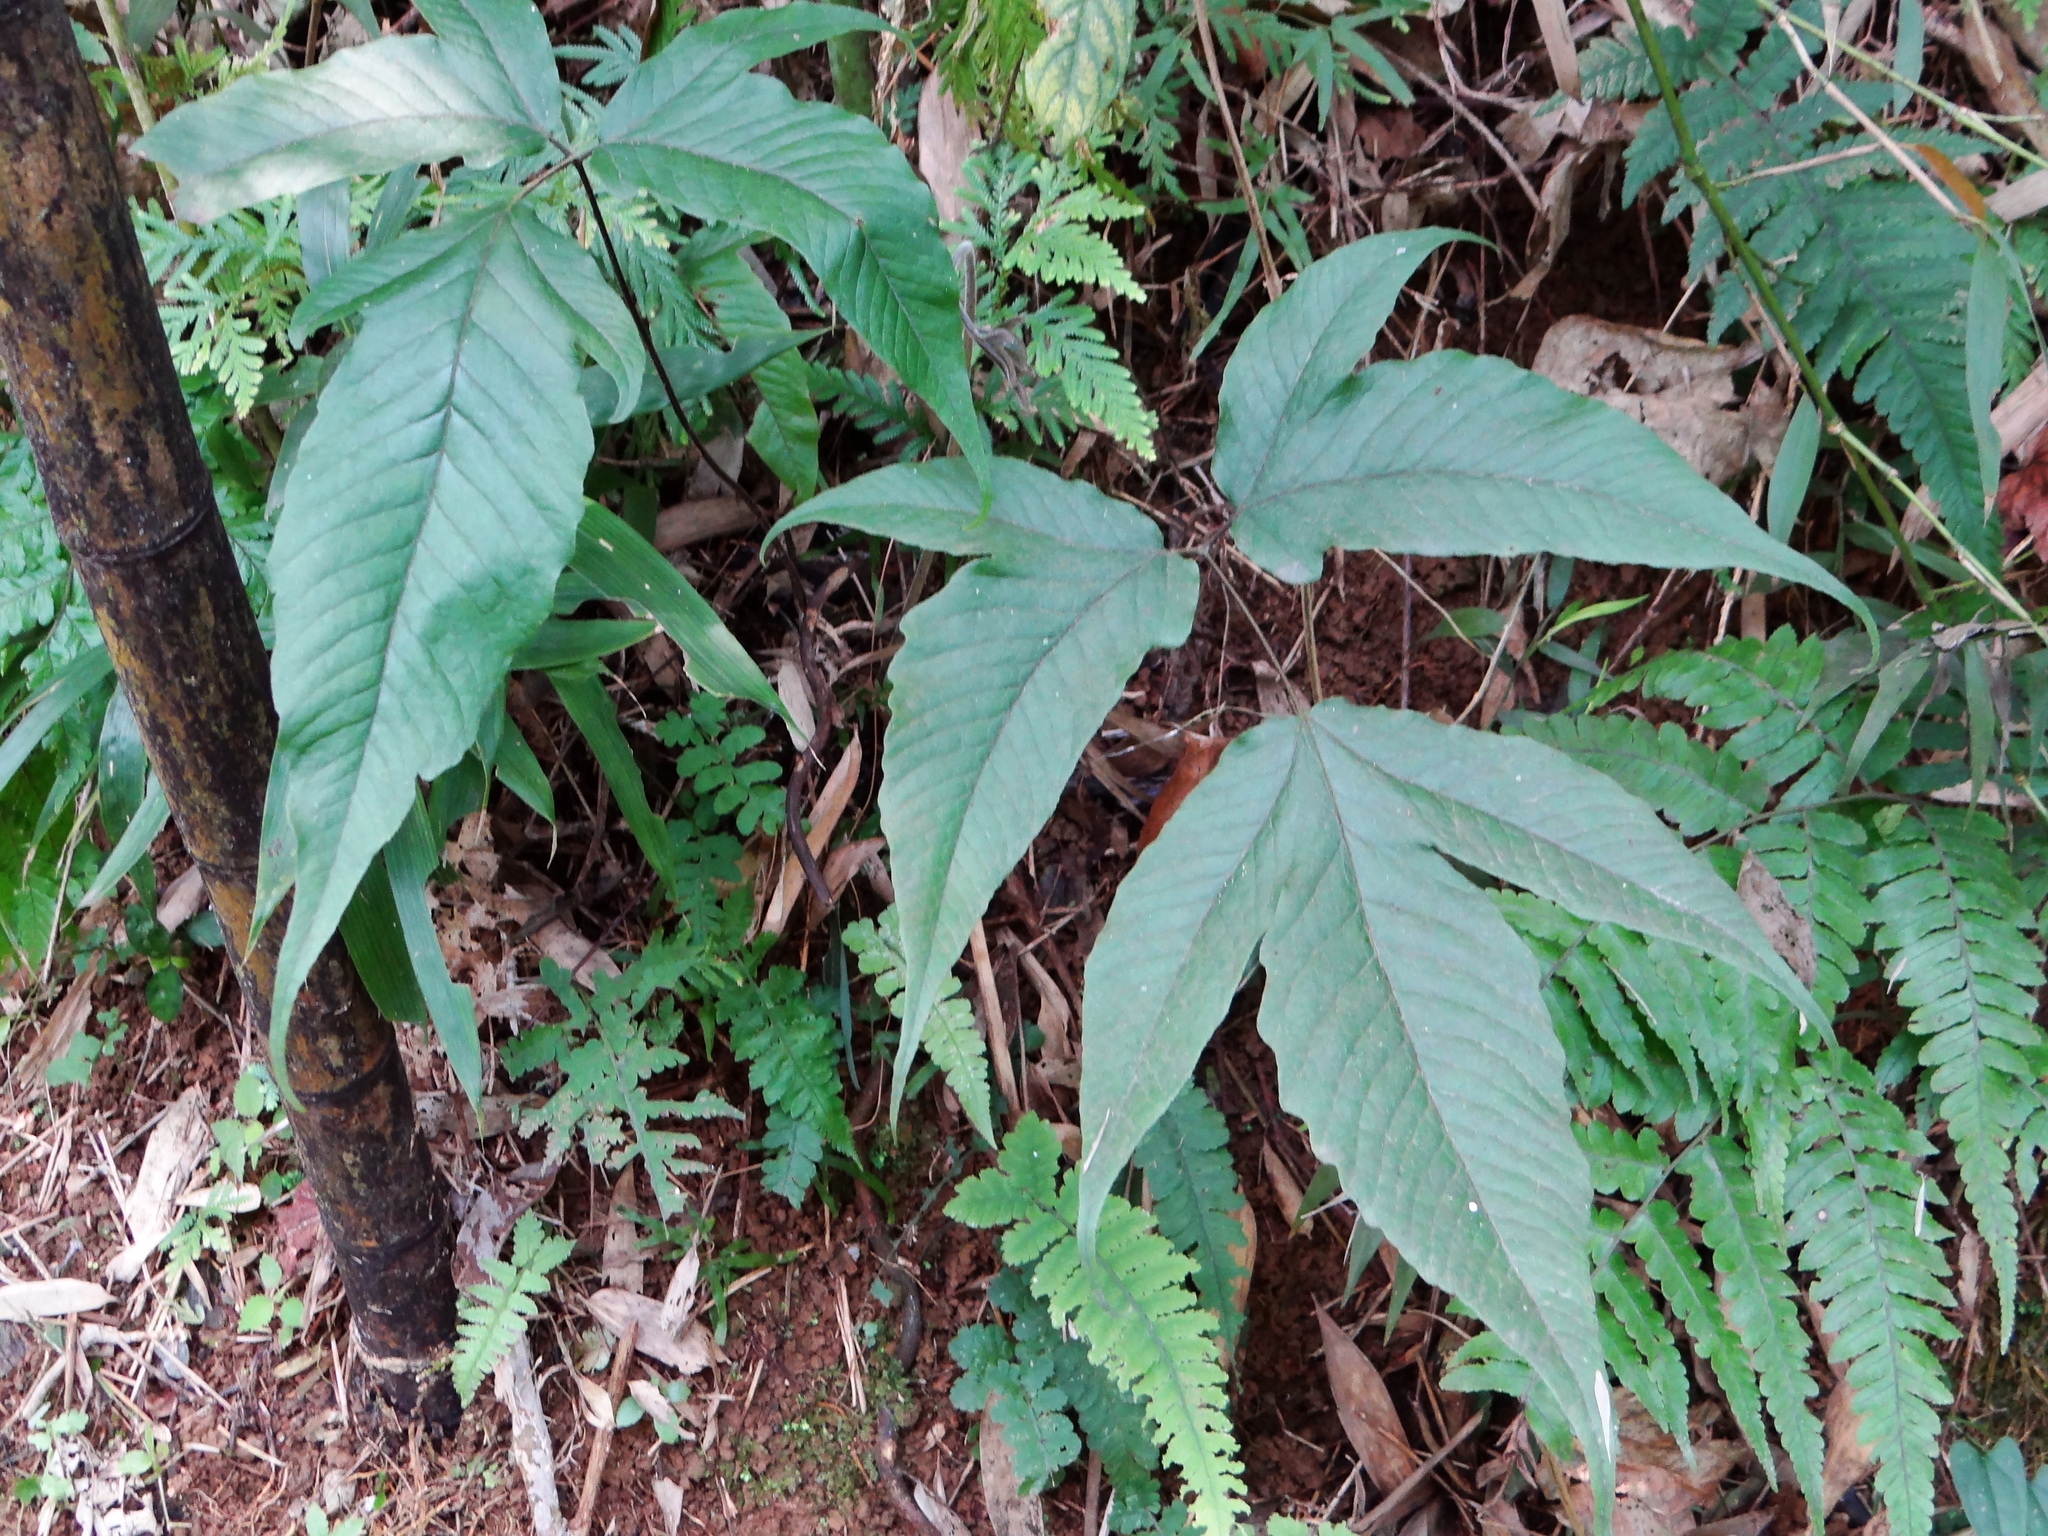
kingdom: Plantae
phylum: Tracheophyta
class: Polypodiopsida
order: Polypodiales
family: Tectariaceae
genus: Tectaria
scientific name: Tectaria simonsii
